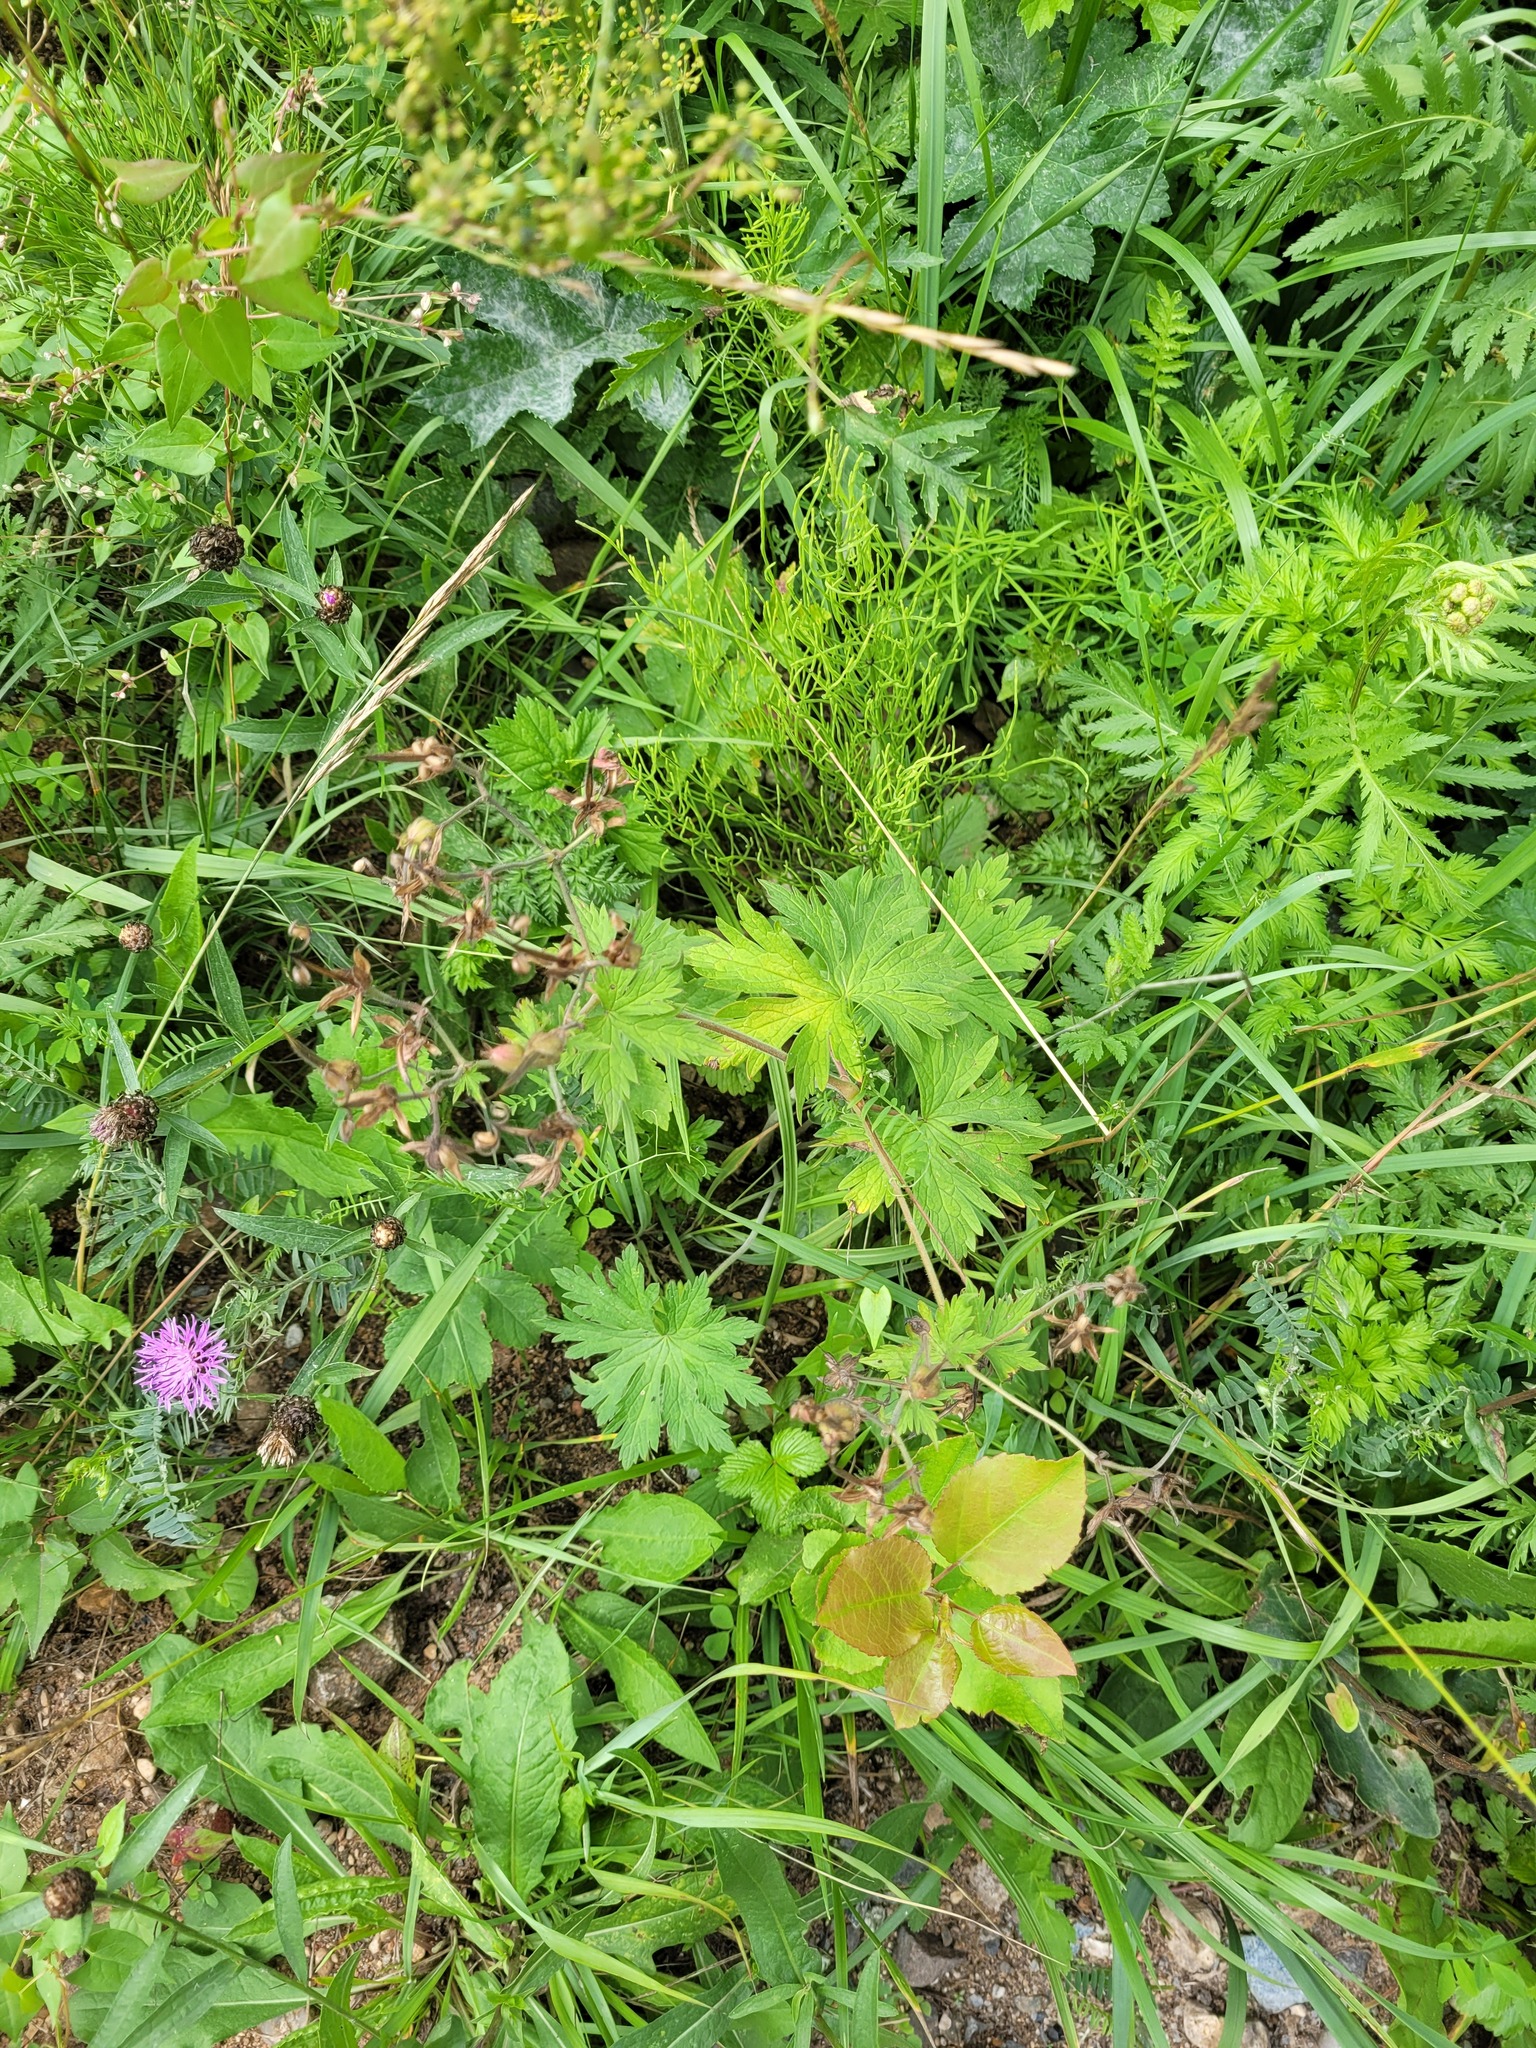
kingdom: Plantae
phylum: Tracheophyta
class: Magnoliopsida
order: Geraniales
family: Geraniaceae
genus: Geranium
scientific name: Geranium sylvaticum
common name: Wood crane's-bill
